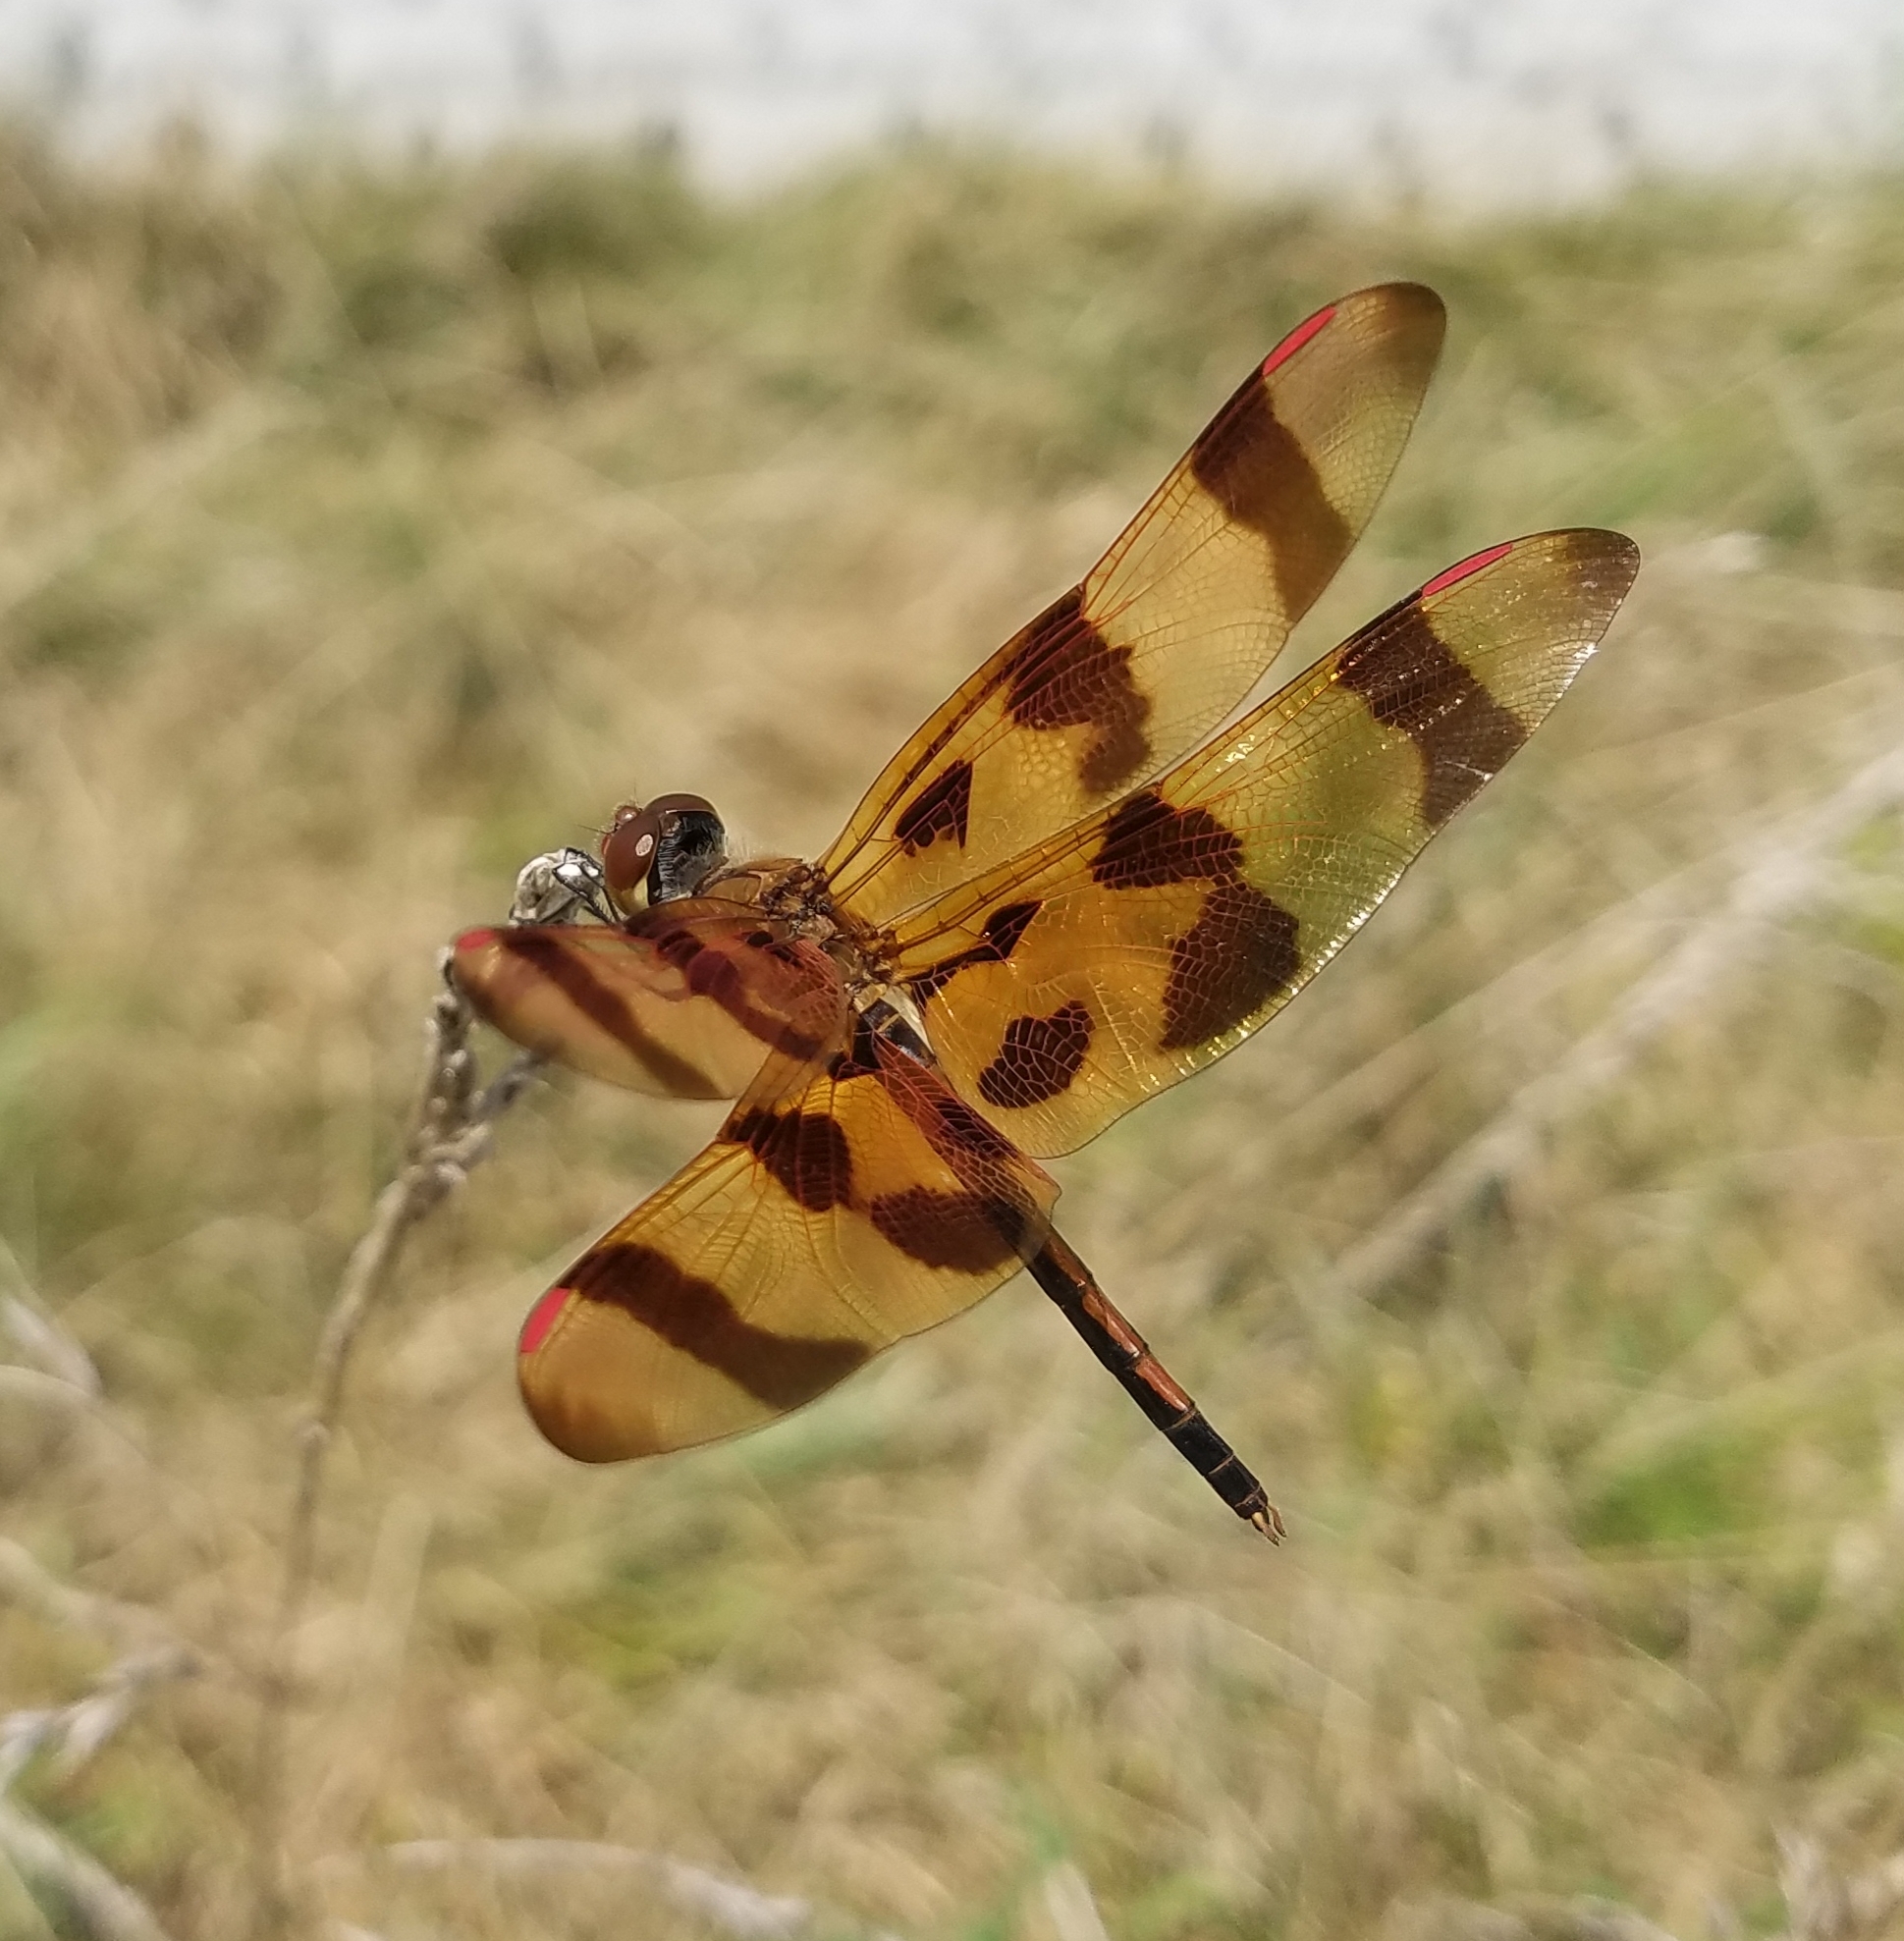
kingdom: Animalia
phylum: Arthropoda
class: Insecta
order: Odonata
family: Libellulidae
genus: Celithemis
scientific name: Celithemis eponina
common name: Halloween pennant
